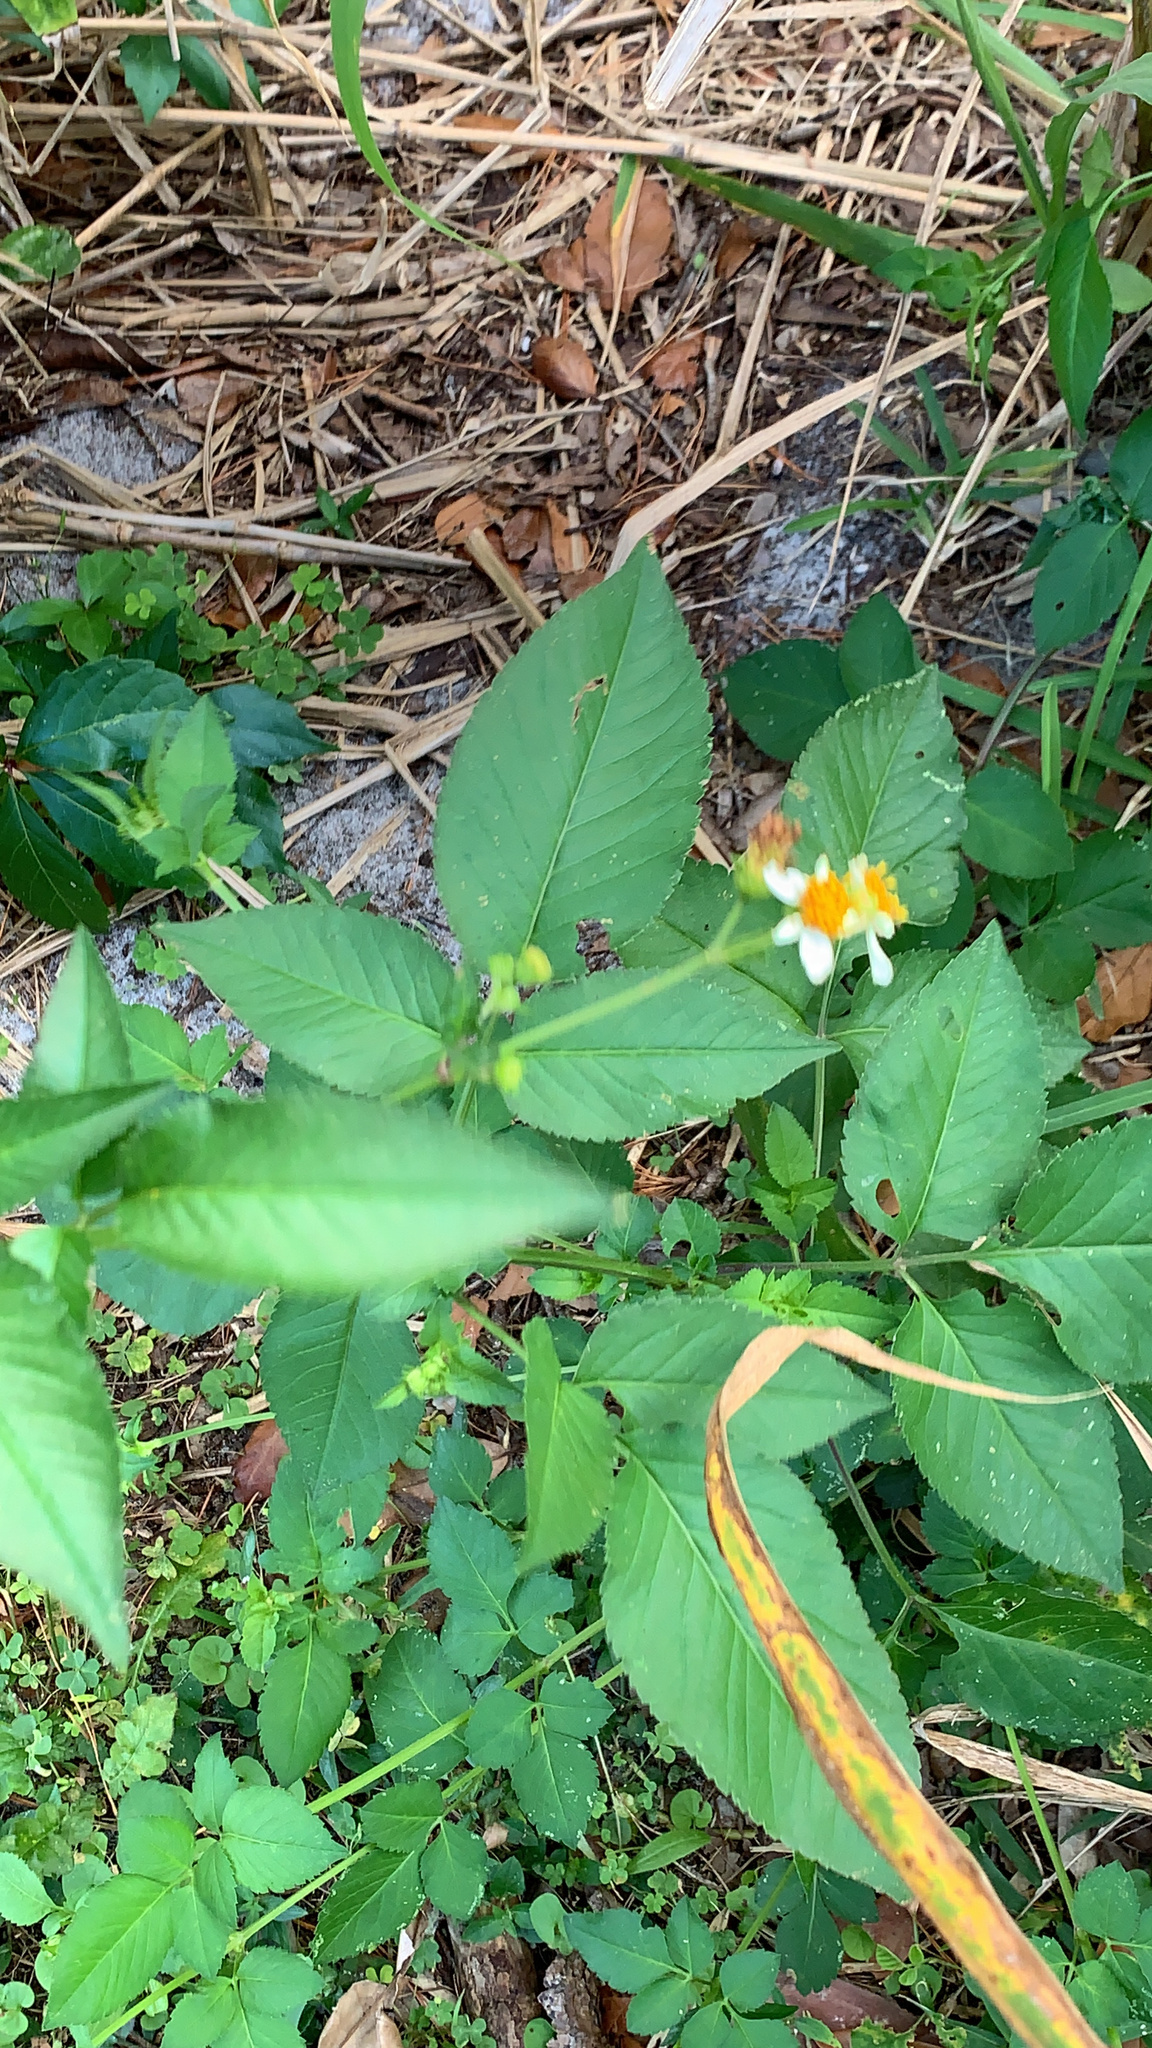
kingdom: Plantae
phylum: Tracheophyta
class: Magnoliopsida
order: Asterales
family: Asteraceae
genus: Bidens
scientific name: Bidens alba
